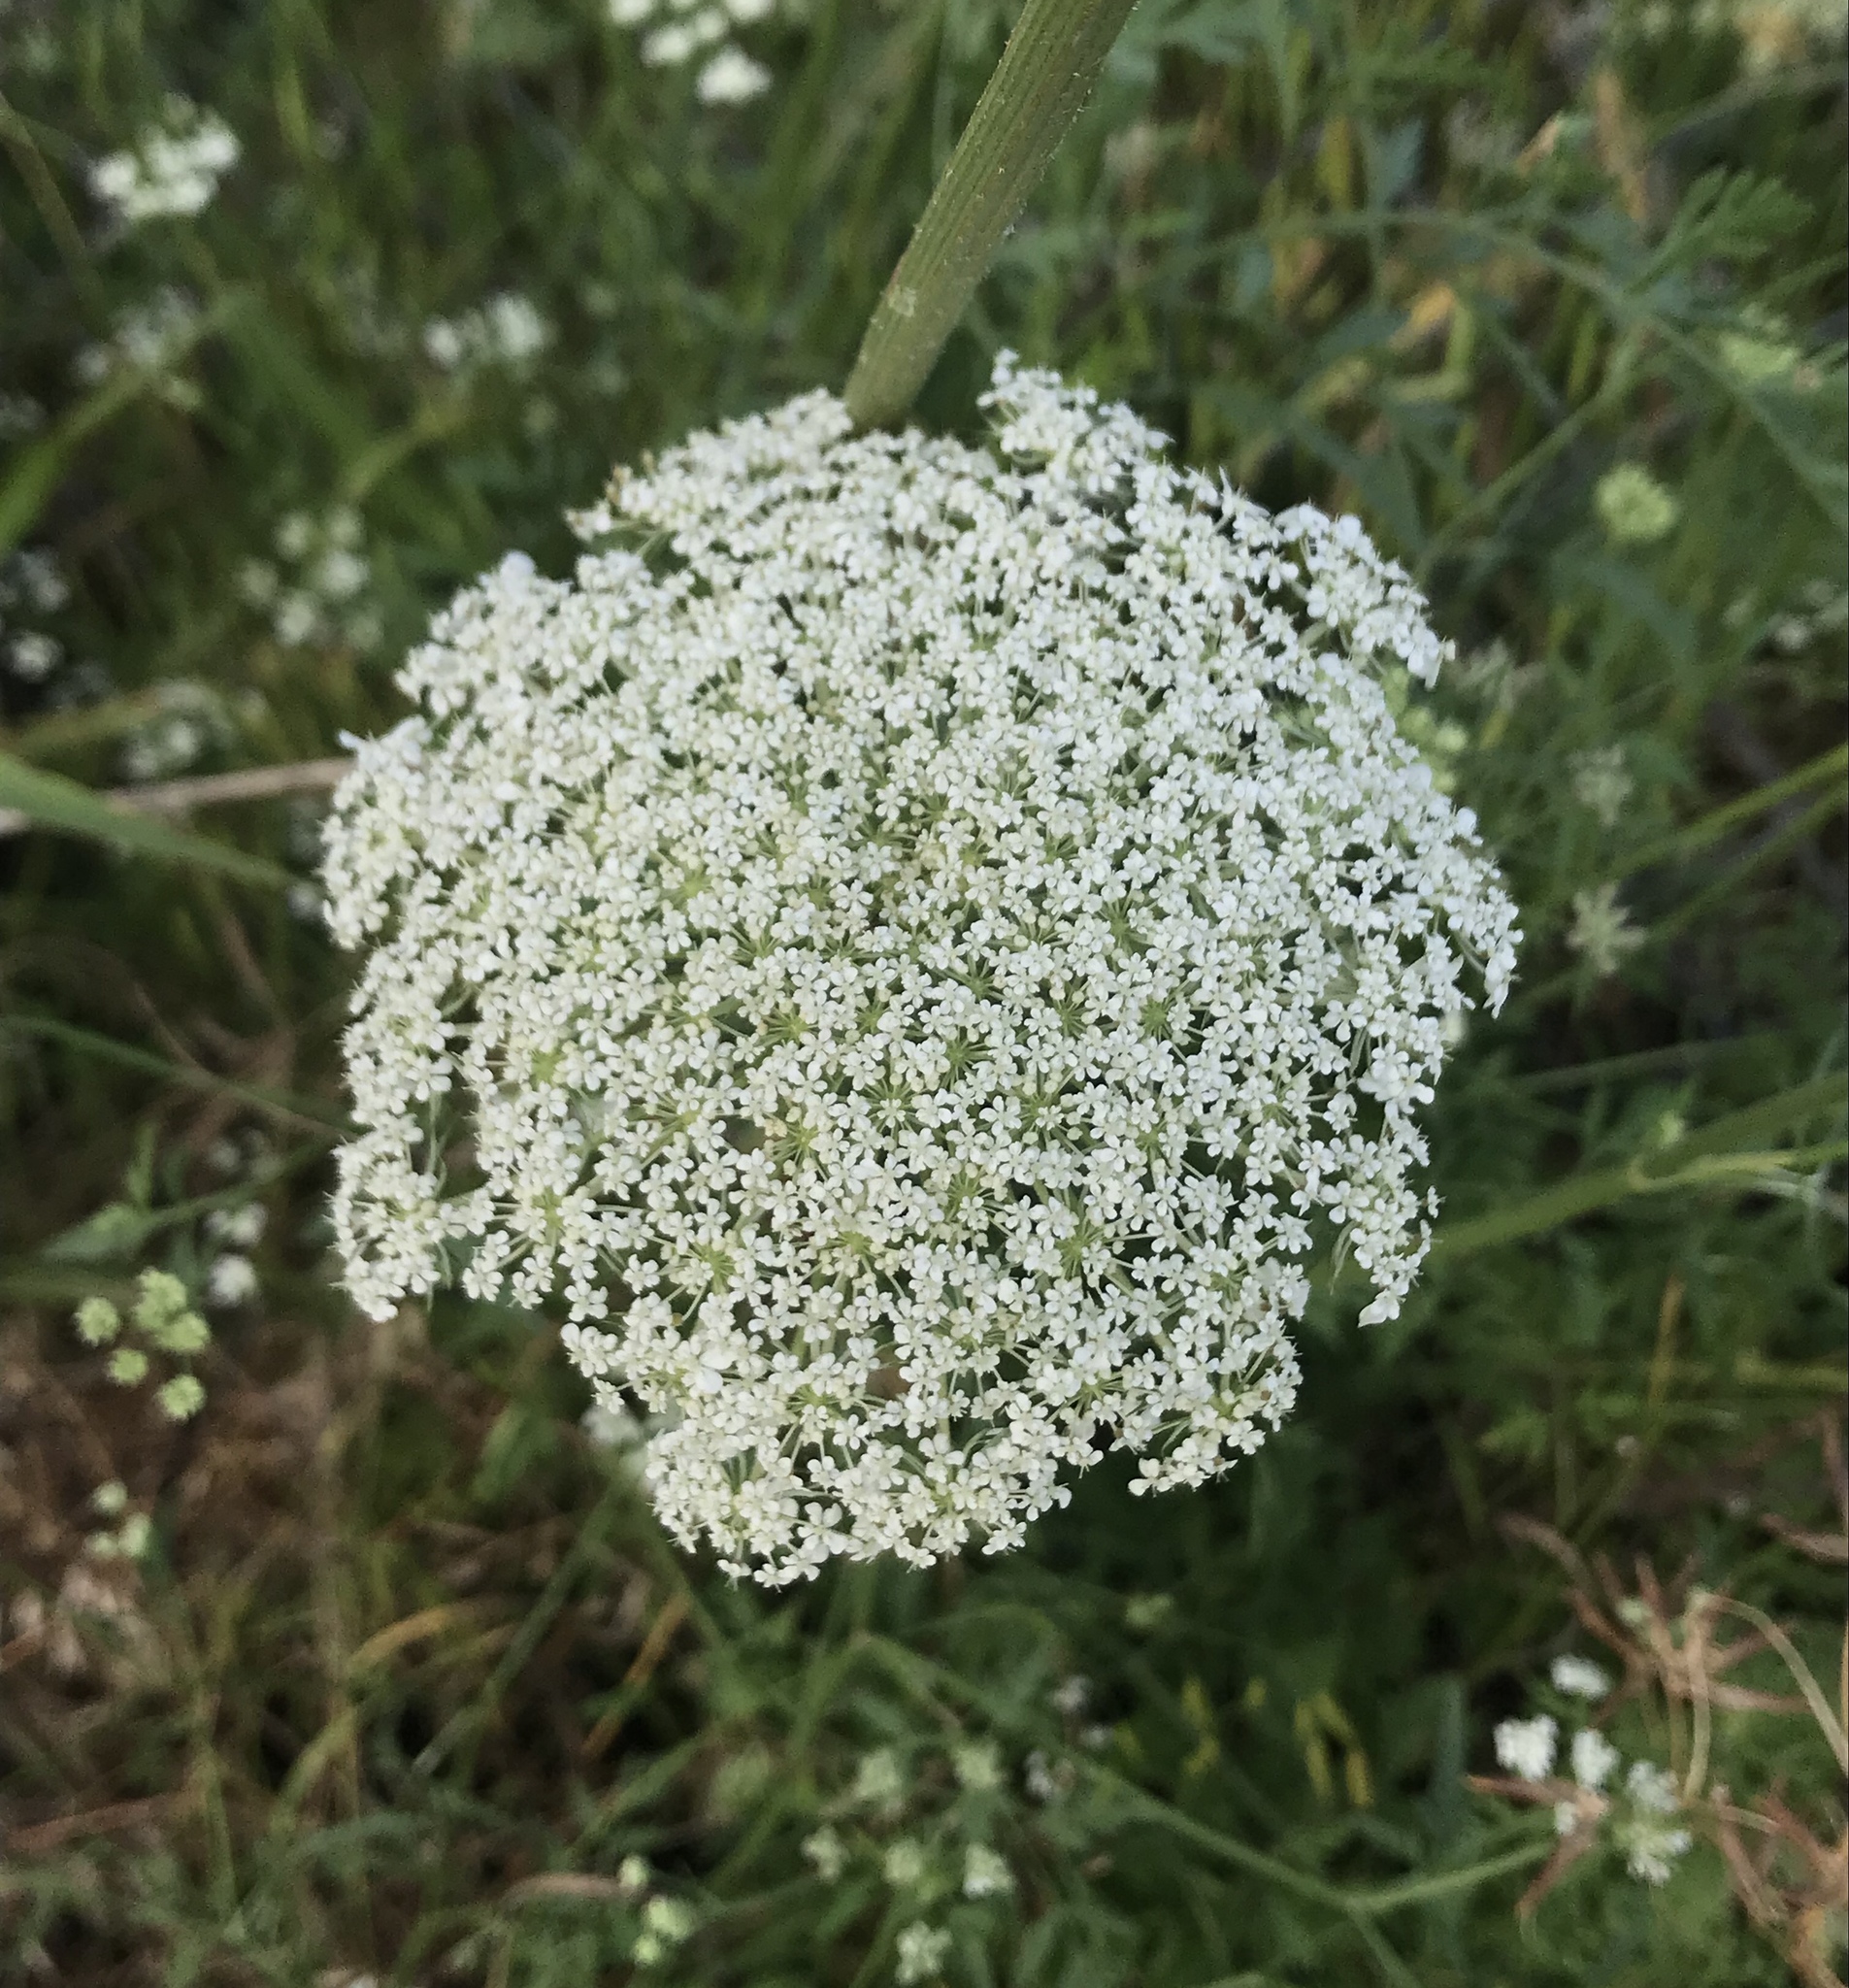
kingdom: Plantae
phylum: Tracheophyta
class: Magnoliopsida
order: Apiales
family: Apiaceae
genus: Daucus
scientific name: Daucus carota
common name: Wild carrot
